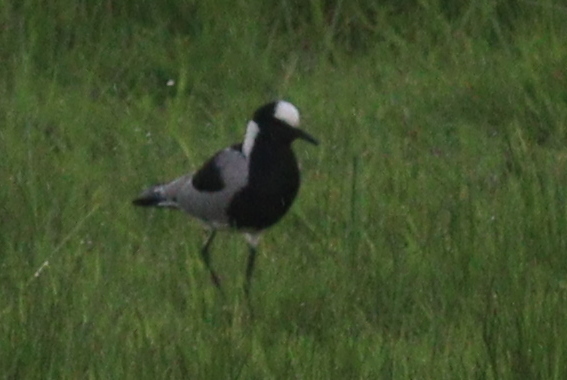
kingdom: Animalia
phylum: Chordata
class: Aves
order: Charadriiformes
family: Charadriidae
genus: Vanellus
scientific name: Vanellus armatus
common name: Blacksmith lapwing
